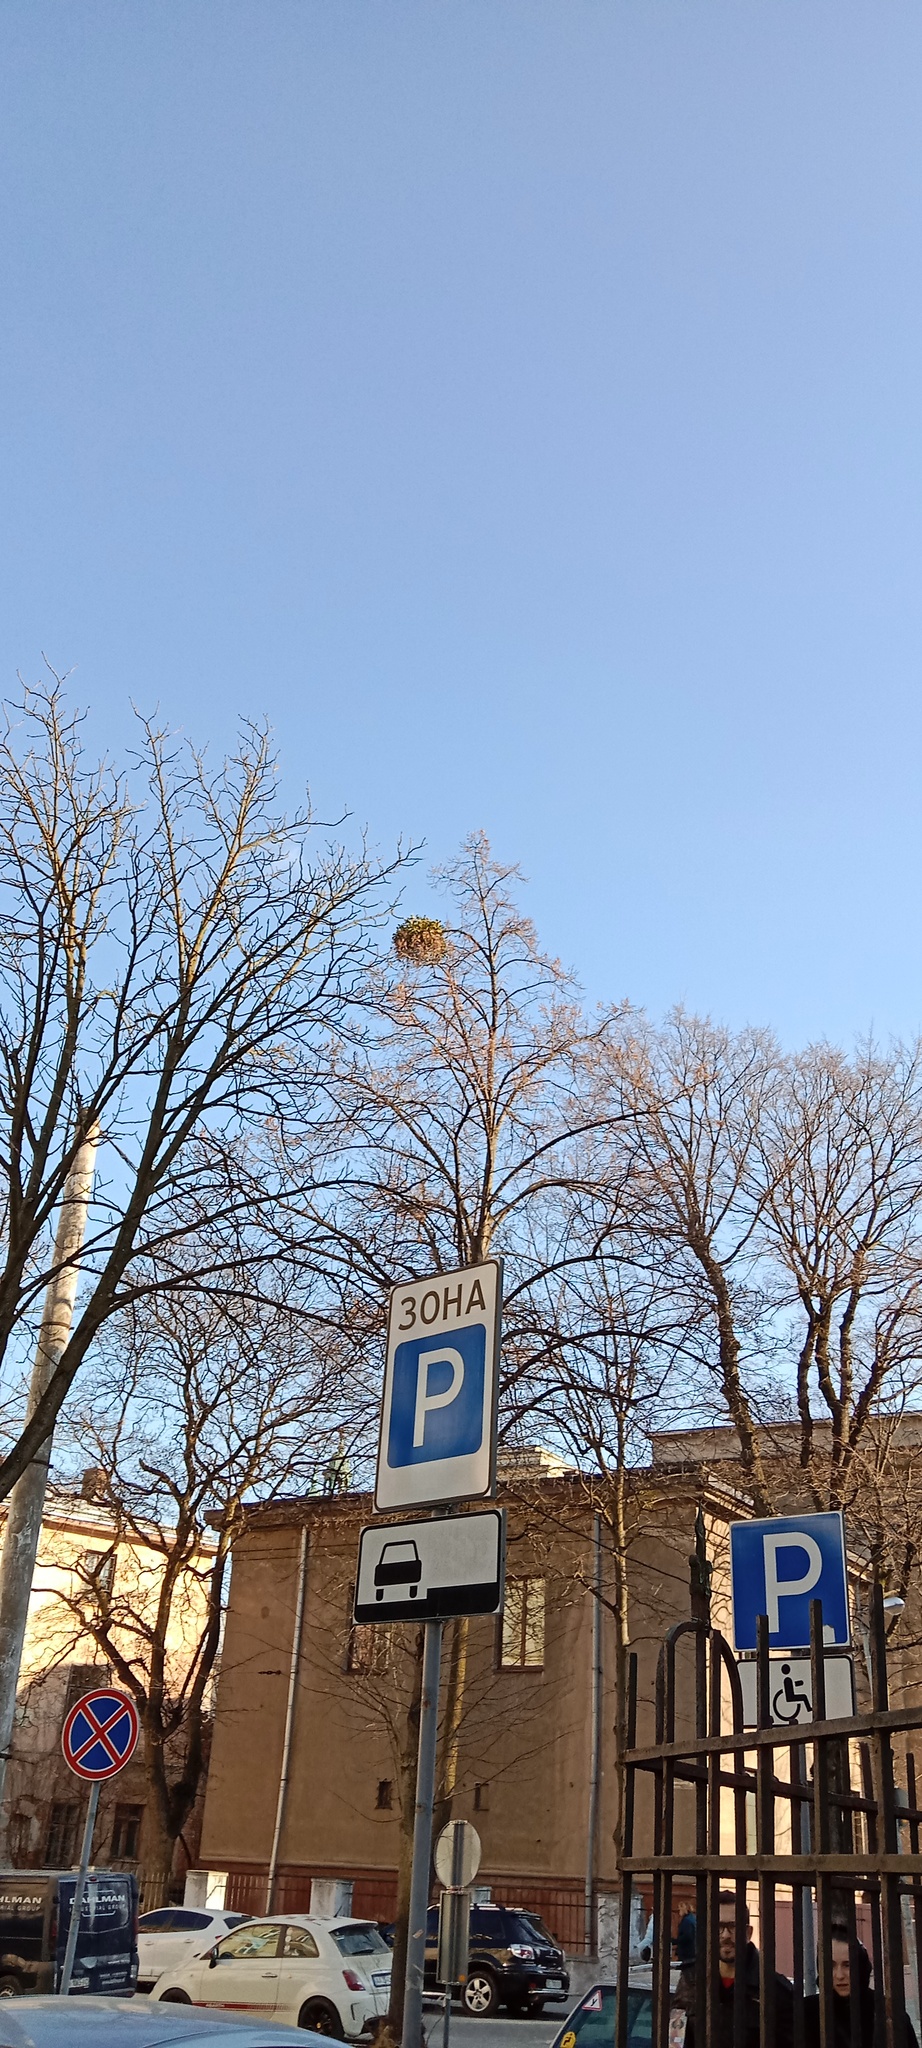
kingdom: Plantae
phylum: Tracheophyta
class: Magnoliopsida
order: Santalales
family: Viscaceae
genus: Viscum
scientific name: Viscum album
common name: Mistletoe
